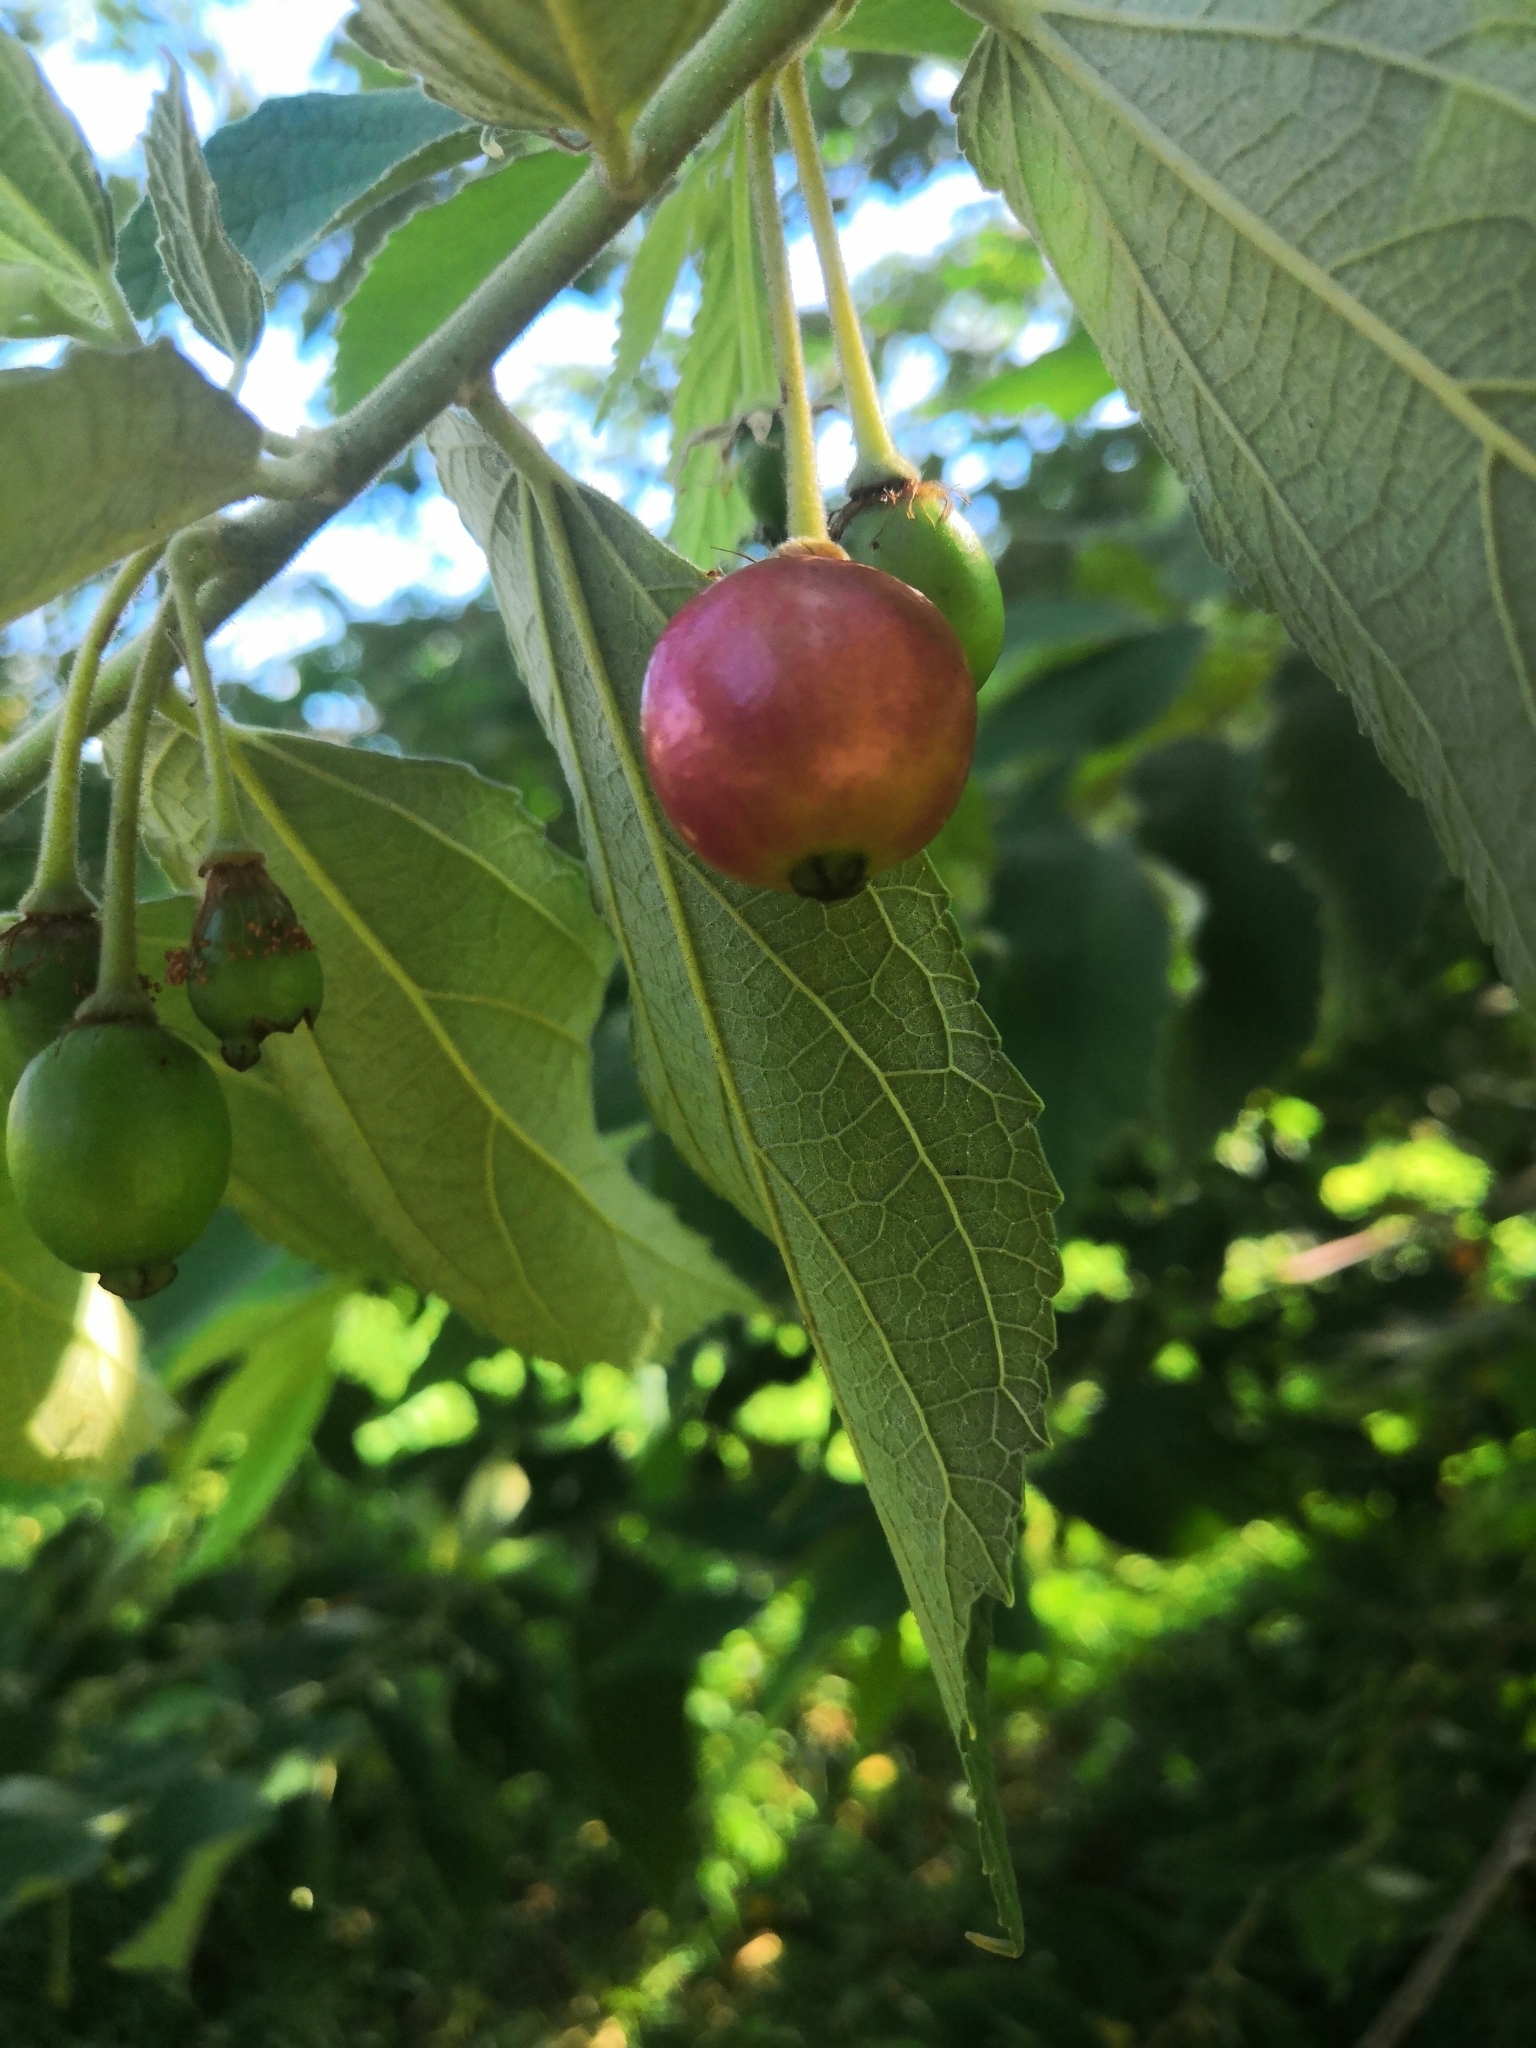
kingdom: Plantae
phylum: Tracheophyta
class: Magnoliopsida
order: Malvales
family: Muntingiaceae
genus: Muntingia
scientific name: Muntingia calabura
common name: Strawberrytree
